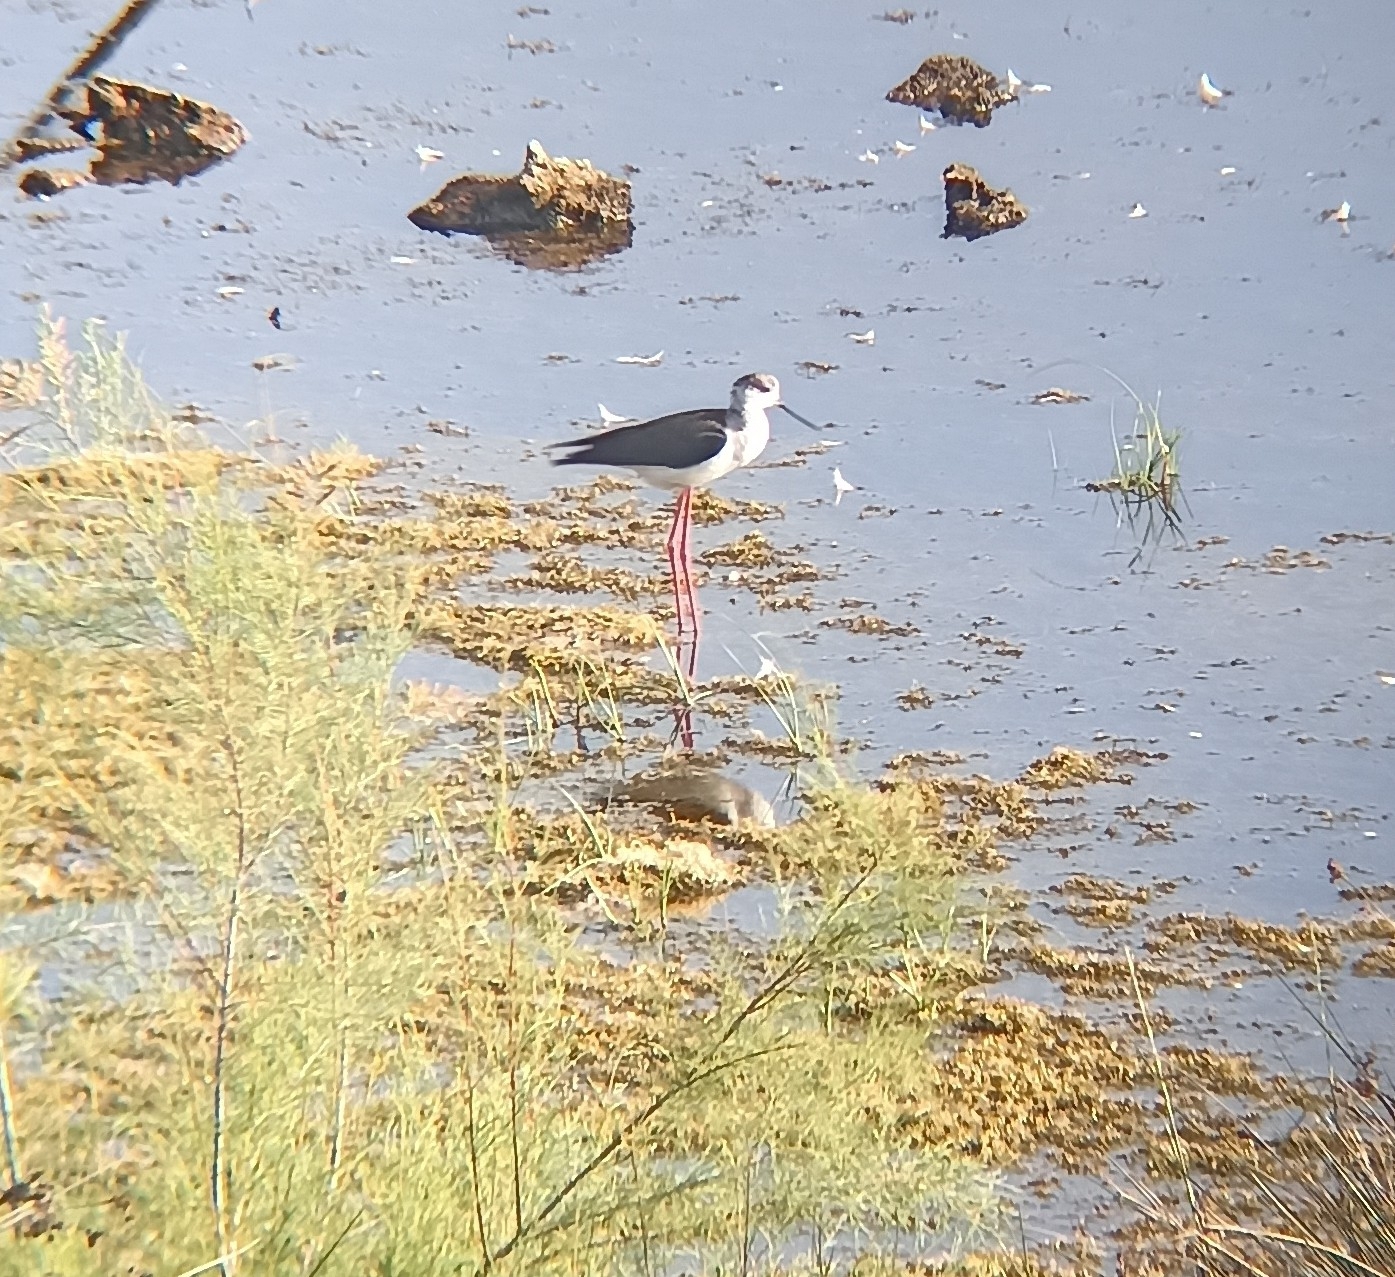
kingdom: Animalia
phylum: Chordata
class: Aves
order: Charadriiformes
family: Recurvirostridae
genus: Himantopus
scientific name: Himantopus himantopus
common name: Black-winged stilt
